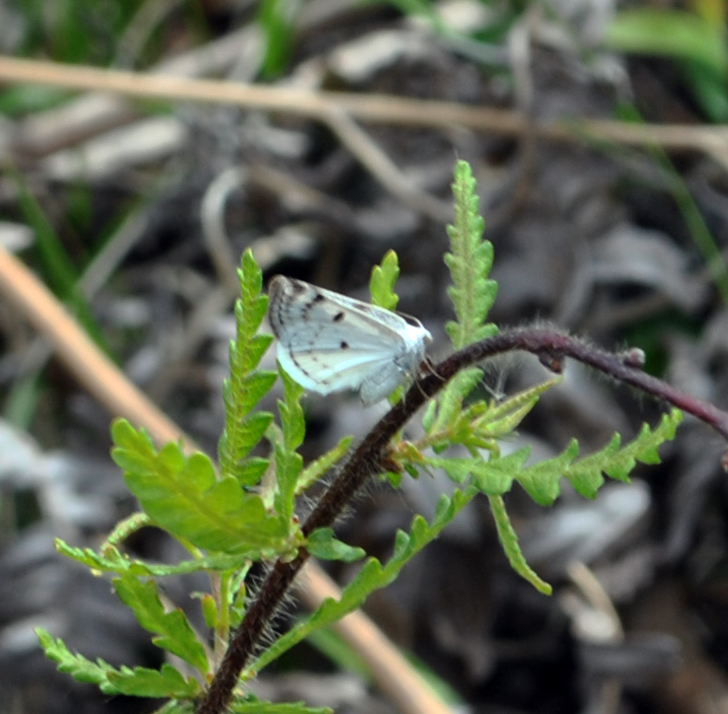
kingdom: Animalia
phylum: Arthropoda
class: Insecta
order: Lepidoptera
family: Geometridae
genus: Lomographa
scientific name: Lomographa semiclarata
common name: Bluish spring moth
